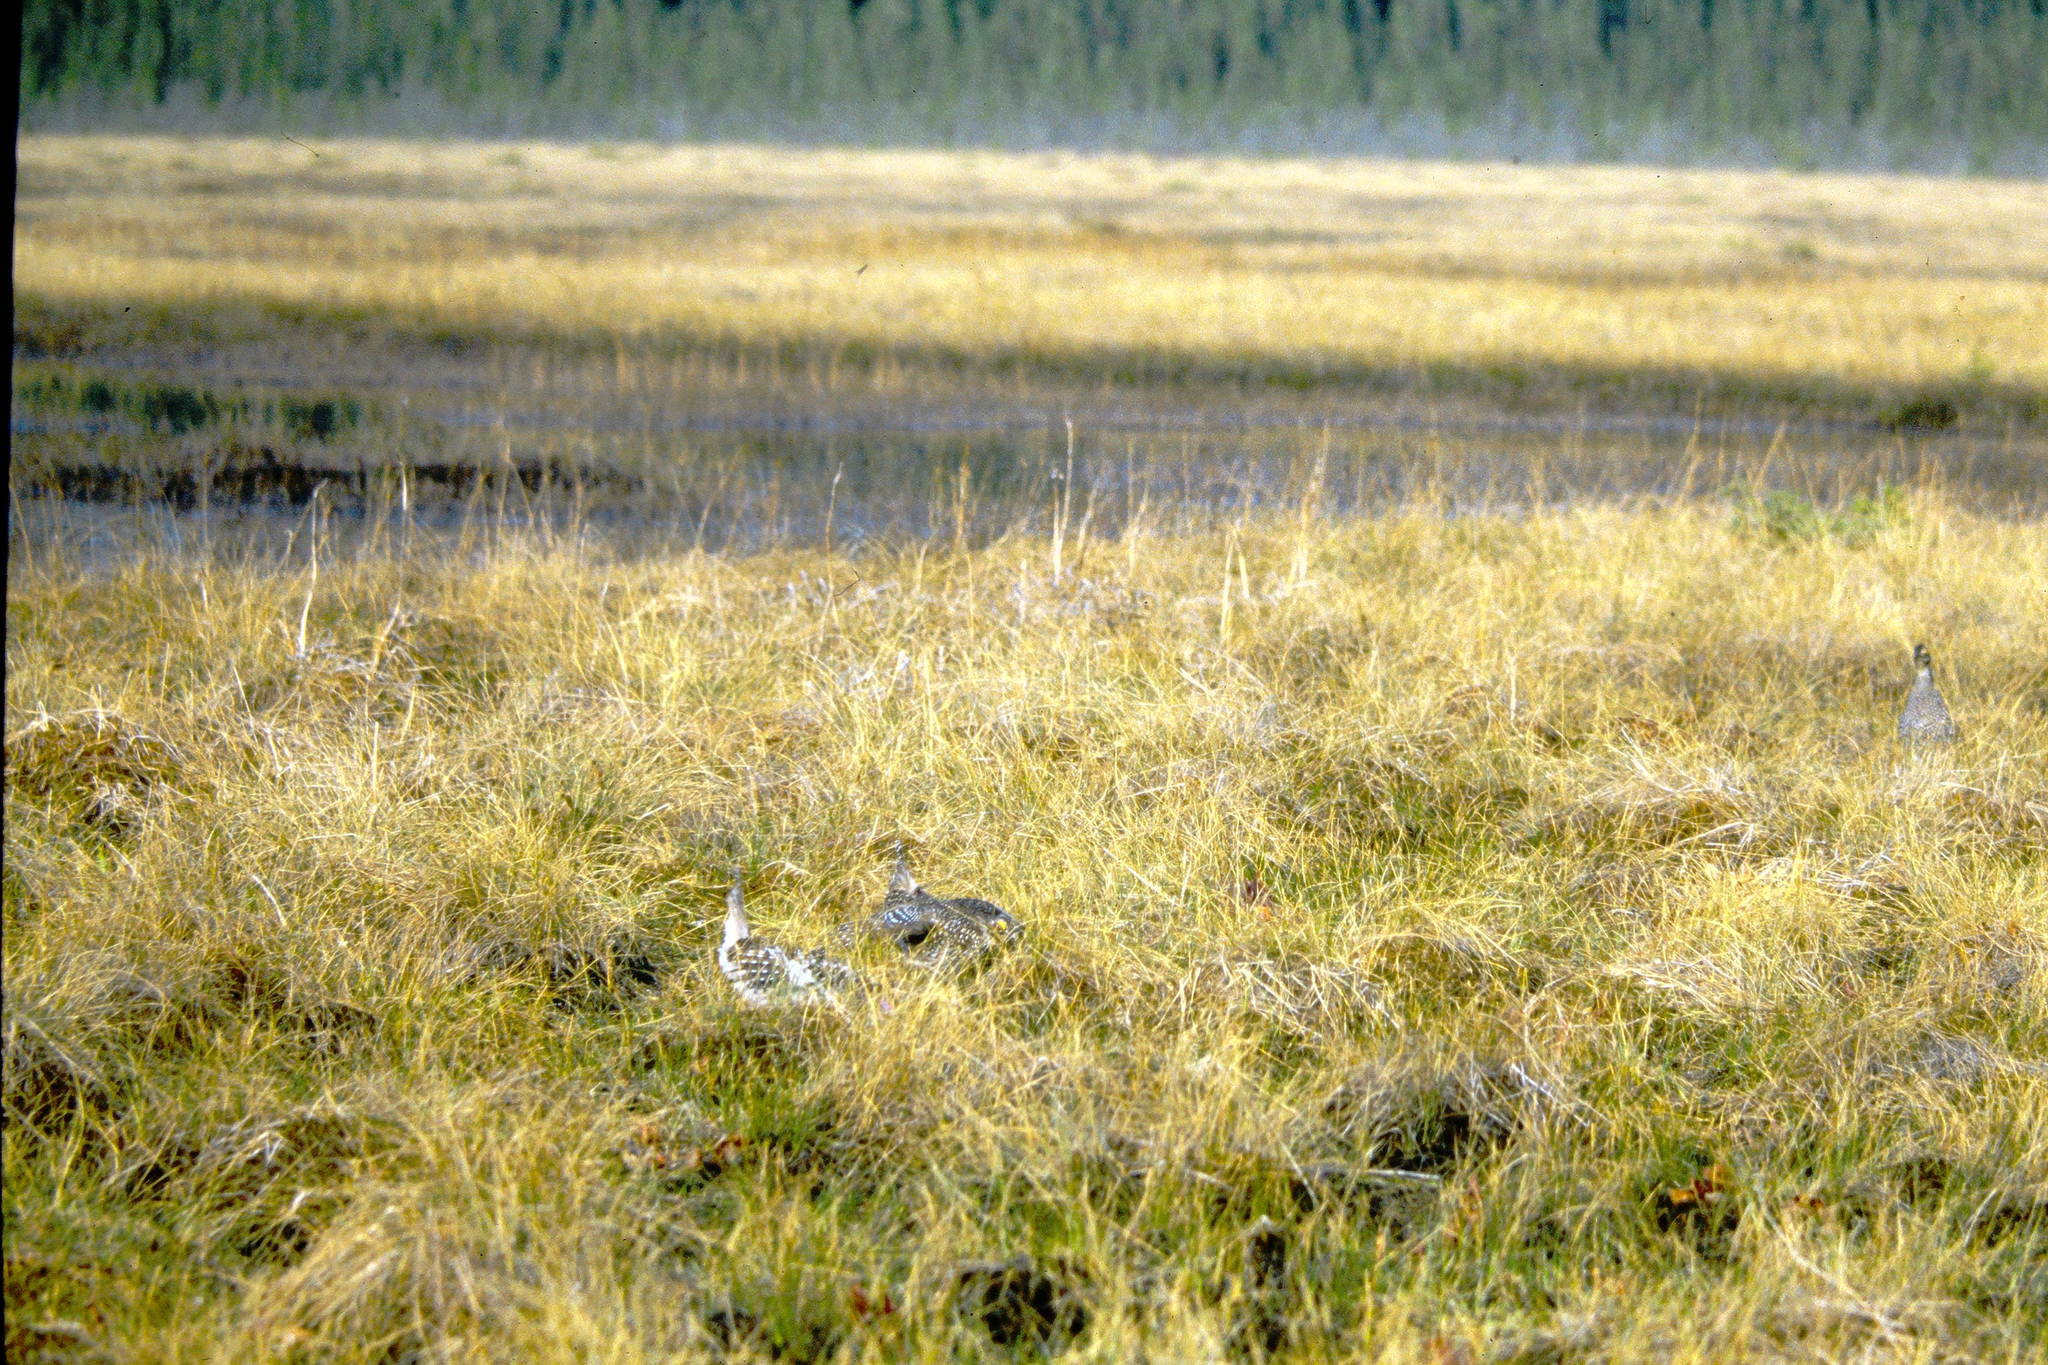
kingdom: Animalia
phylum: Chordata
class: Aves
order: Galliformes
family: Phasianidae
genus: Tympanuchus
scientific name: Tympanuchus phasianellus
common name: Sharp-tailed grouse
